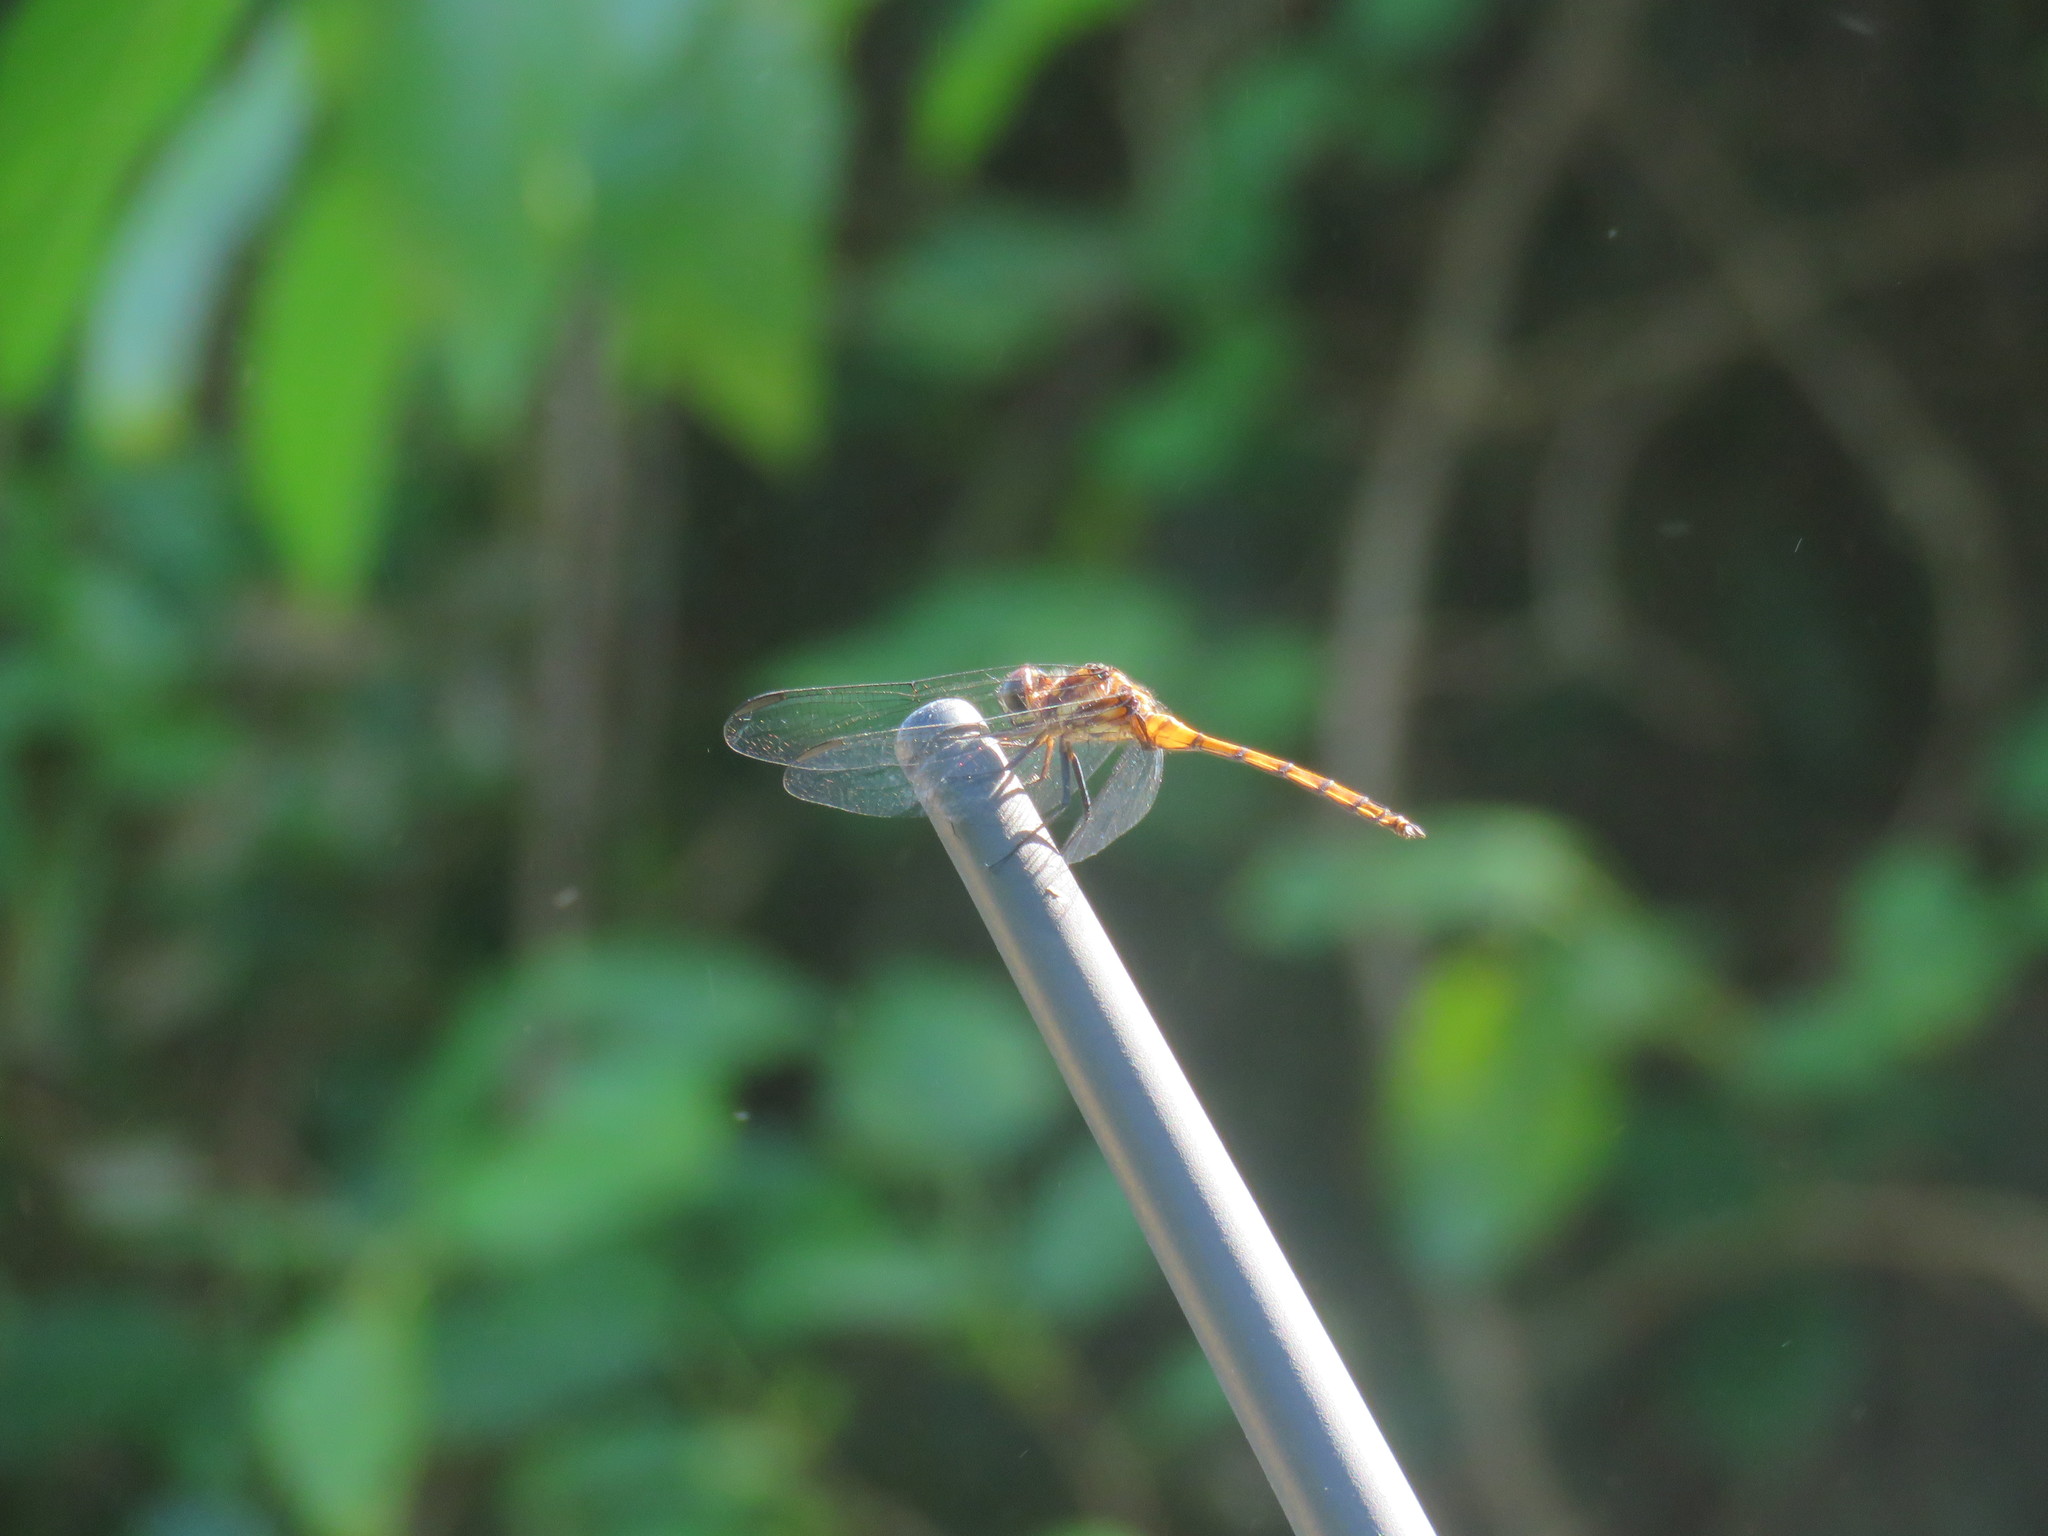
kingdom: Animalia
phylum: Arthropoda
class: Insecta
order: Odonata
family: Libellulidae
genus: Orthemis
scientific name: Orthemis ambinigra
